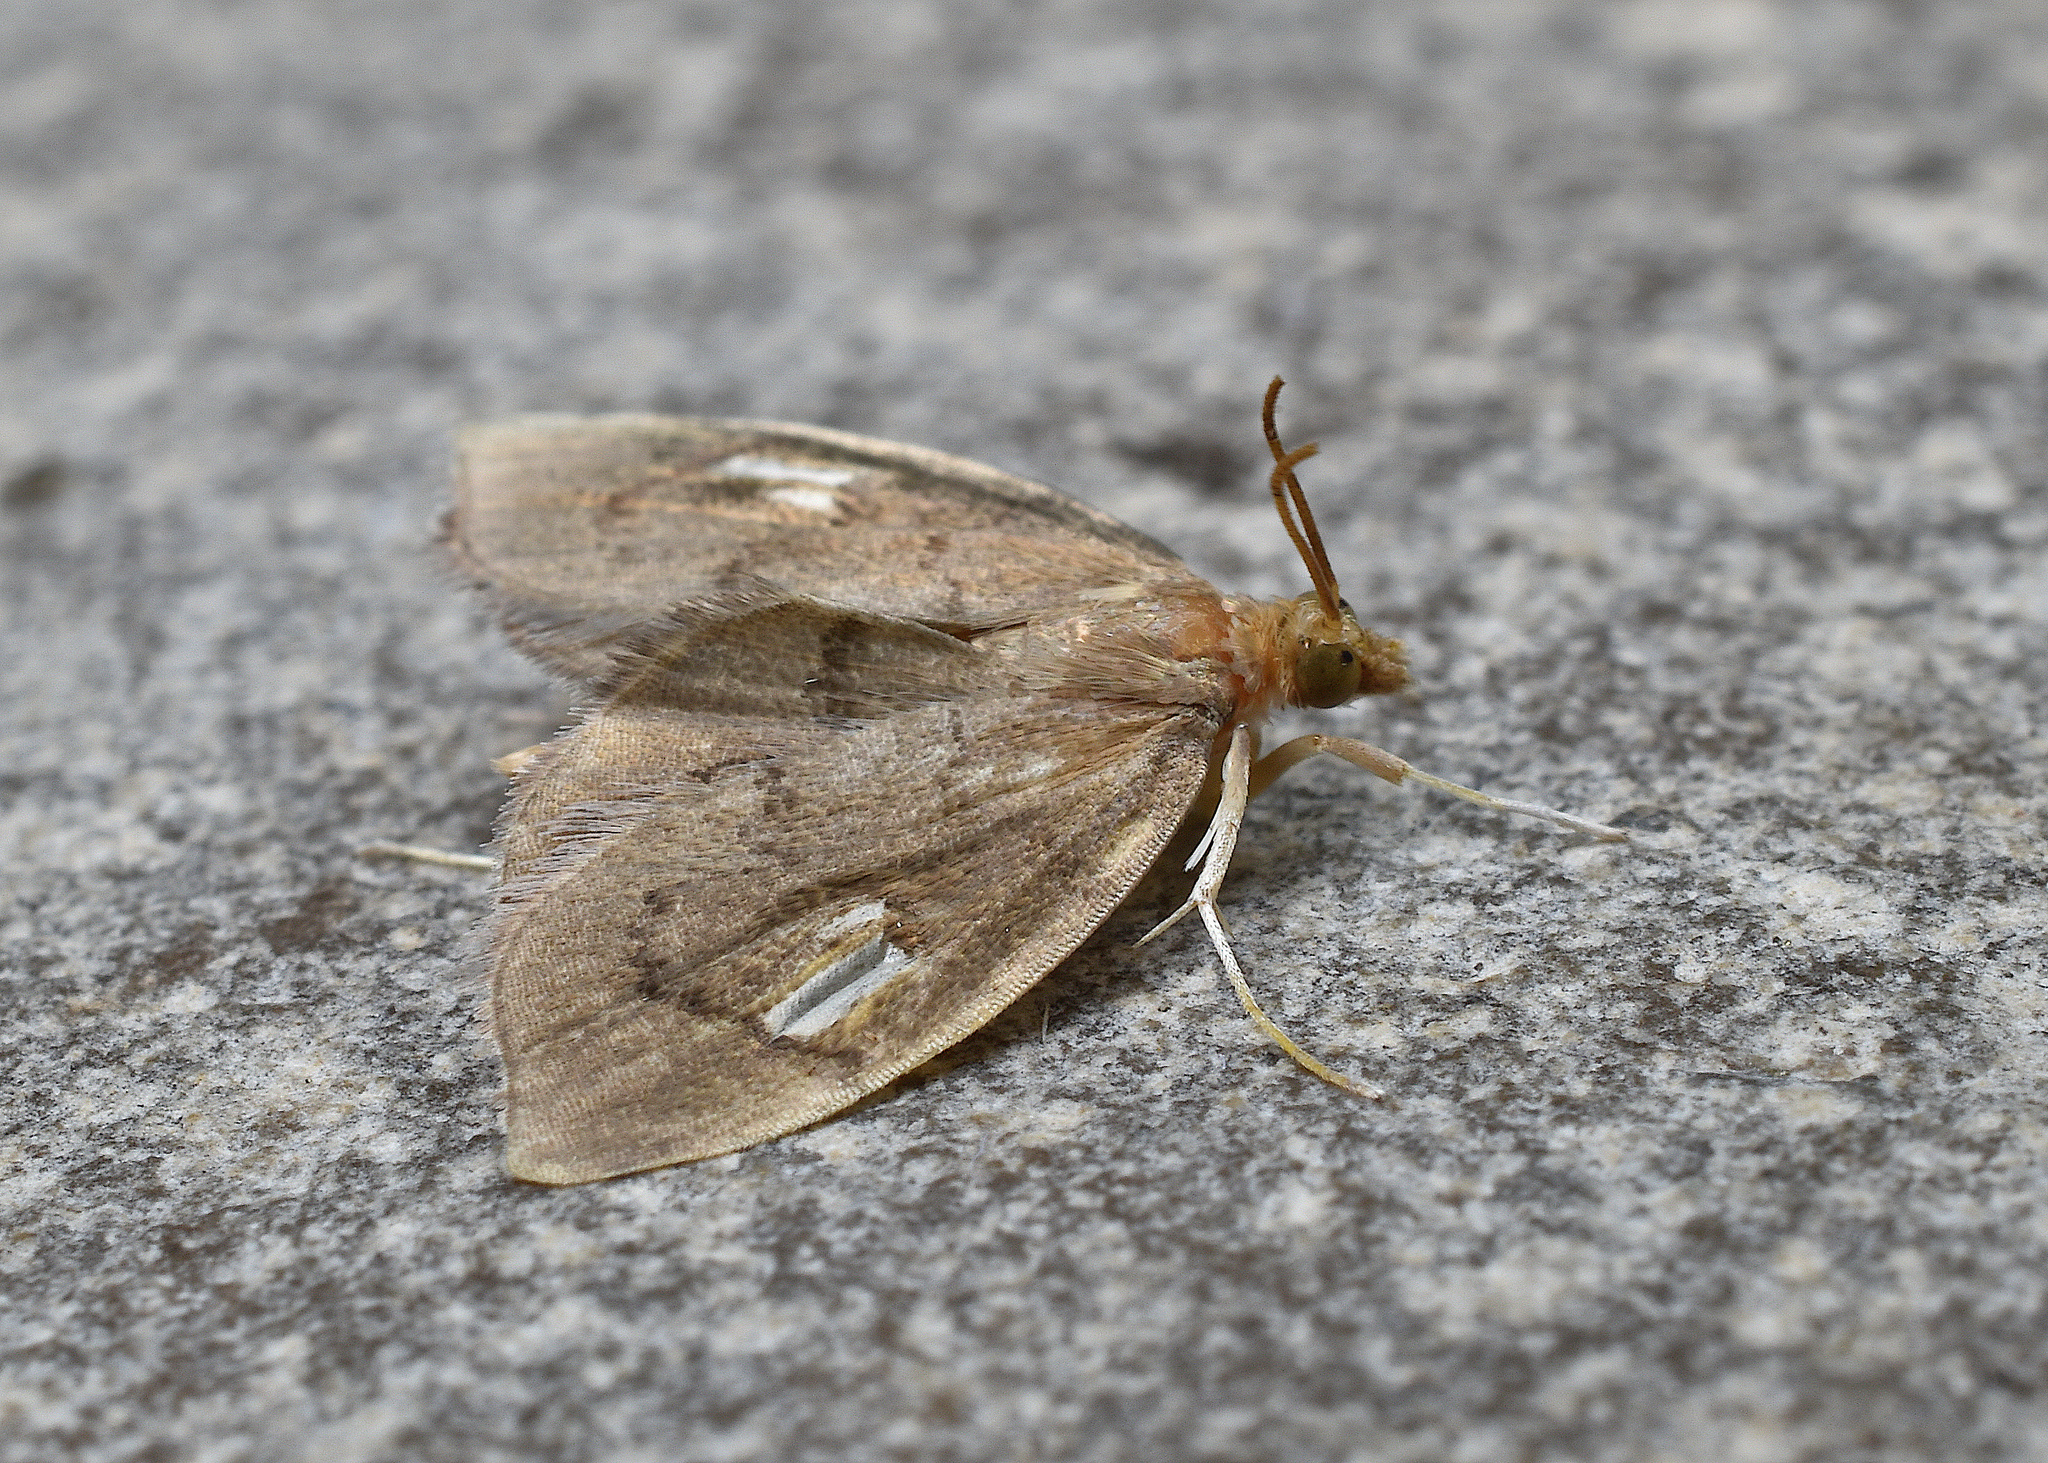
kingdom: Animalia
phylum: Arthropoda
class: Insecta
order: Lepidoptera
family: Crambidae
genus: Perispasta
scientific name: Perispasta caeculalis
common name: Titian peale's moth
